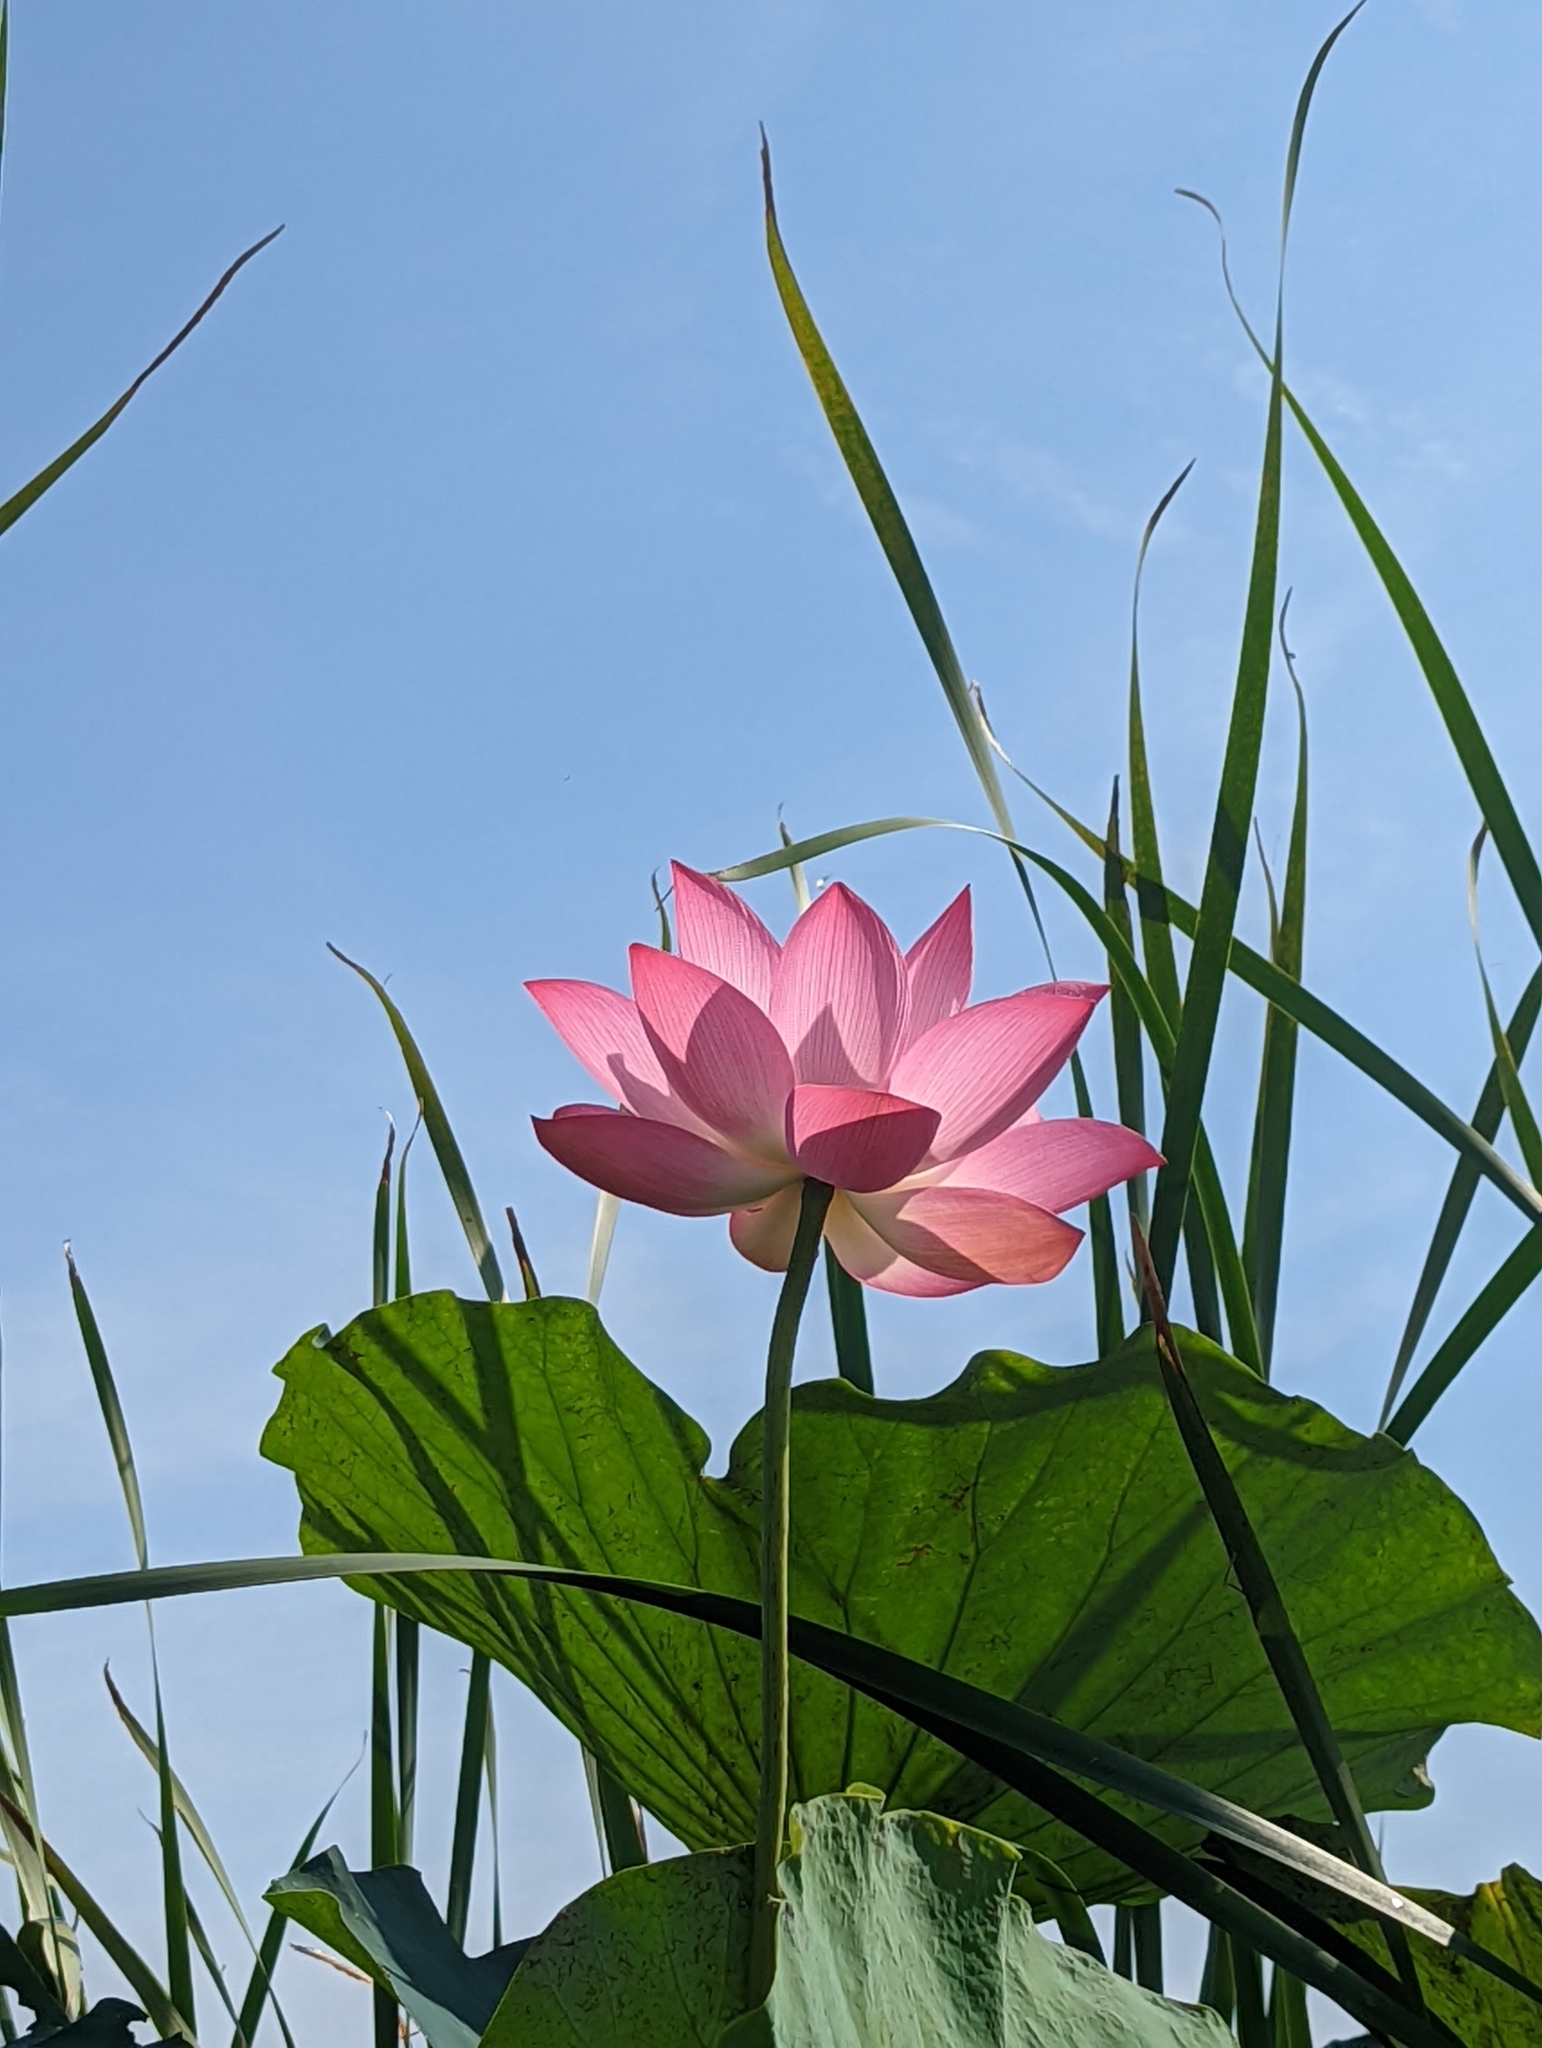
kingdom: Plantae
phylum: Tracheophyta
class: Magnoliopsida
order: Proteales
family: Nelumbonaceae
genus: Nelumbo
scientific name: Nelumbo nucifera
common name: Sacred lotus
